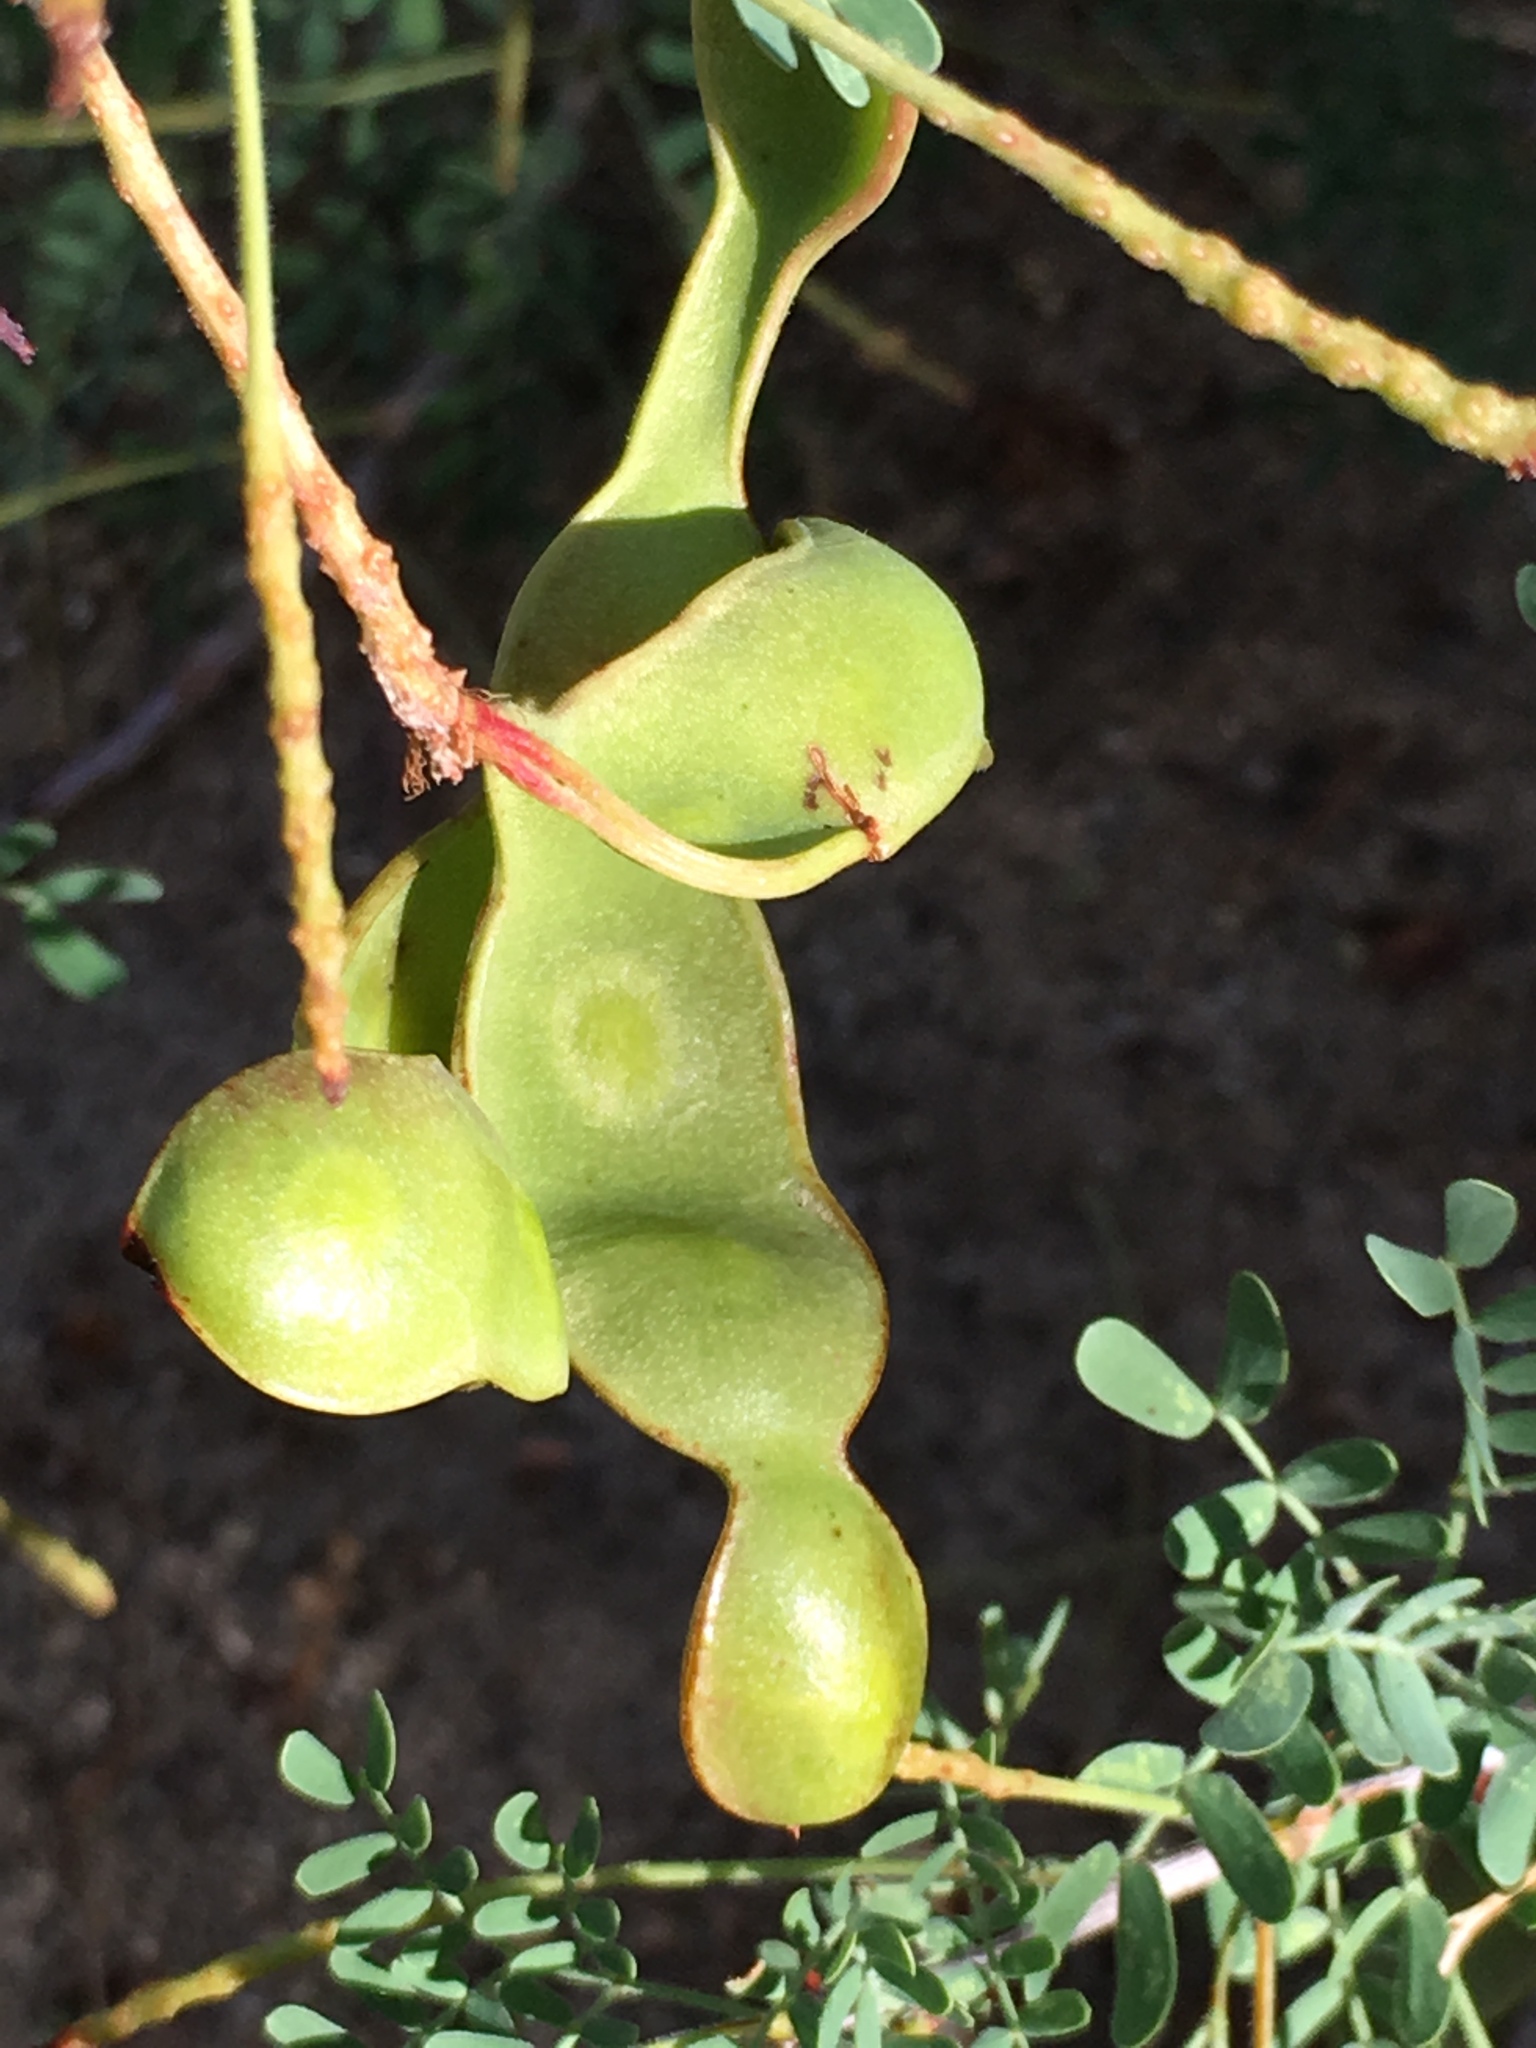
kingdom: Plantae
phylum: Tracheophyta
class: Magnoliopsida
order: Fabales
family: Fabaceae
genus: Senegalia
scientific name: Senegalia greggii
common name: Texas-mimosa
